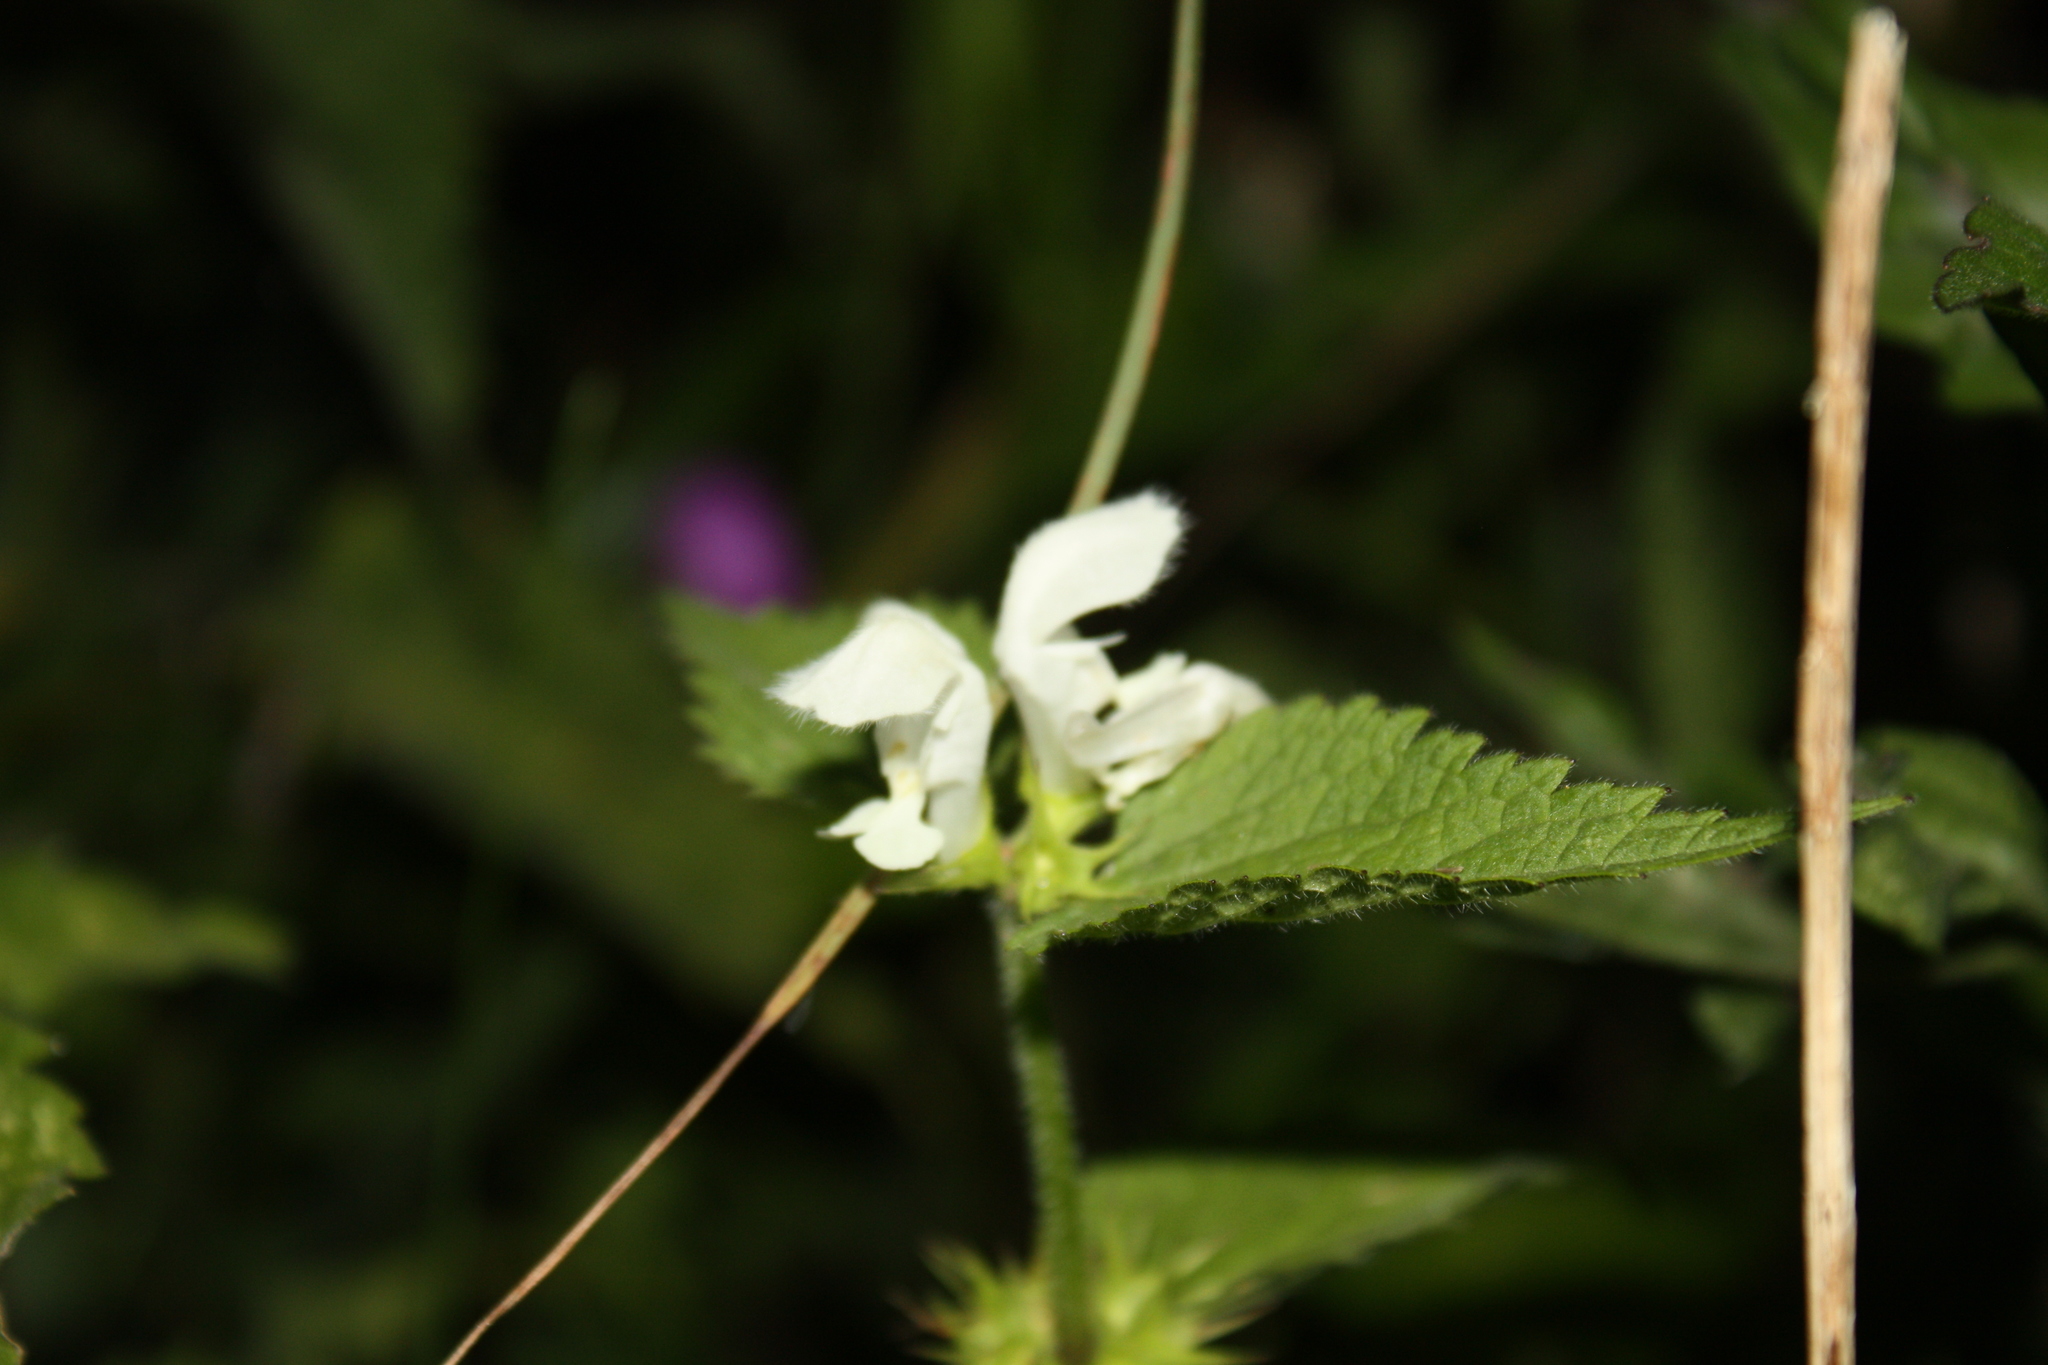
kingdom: Plantae
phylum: Tracheophyta
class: Magnoliopsida
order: Lamiales
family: Lamiaceae
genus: Lamium
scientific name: Lamium album
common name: White dead-nettle
